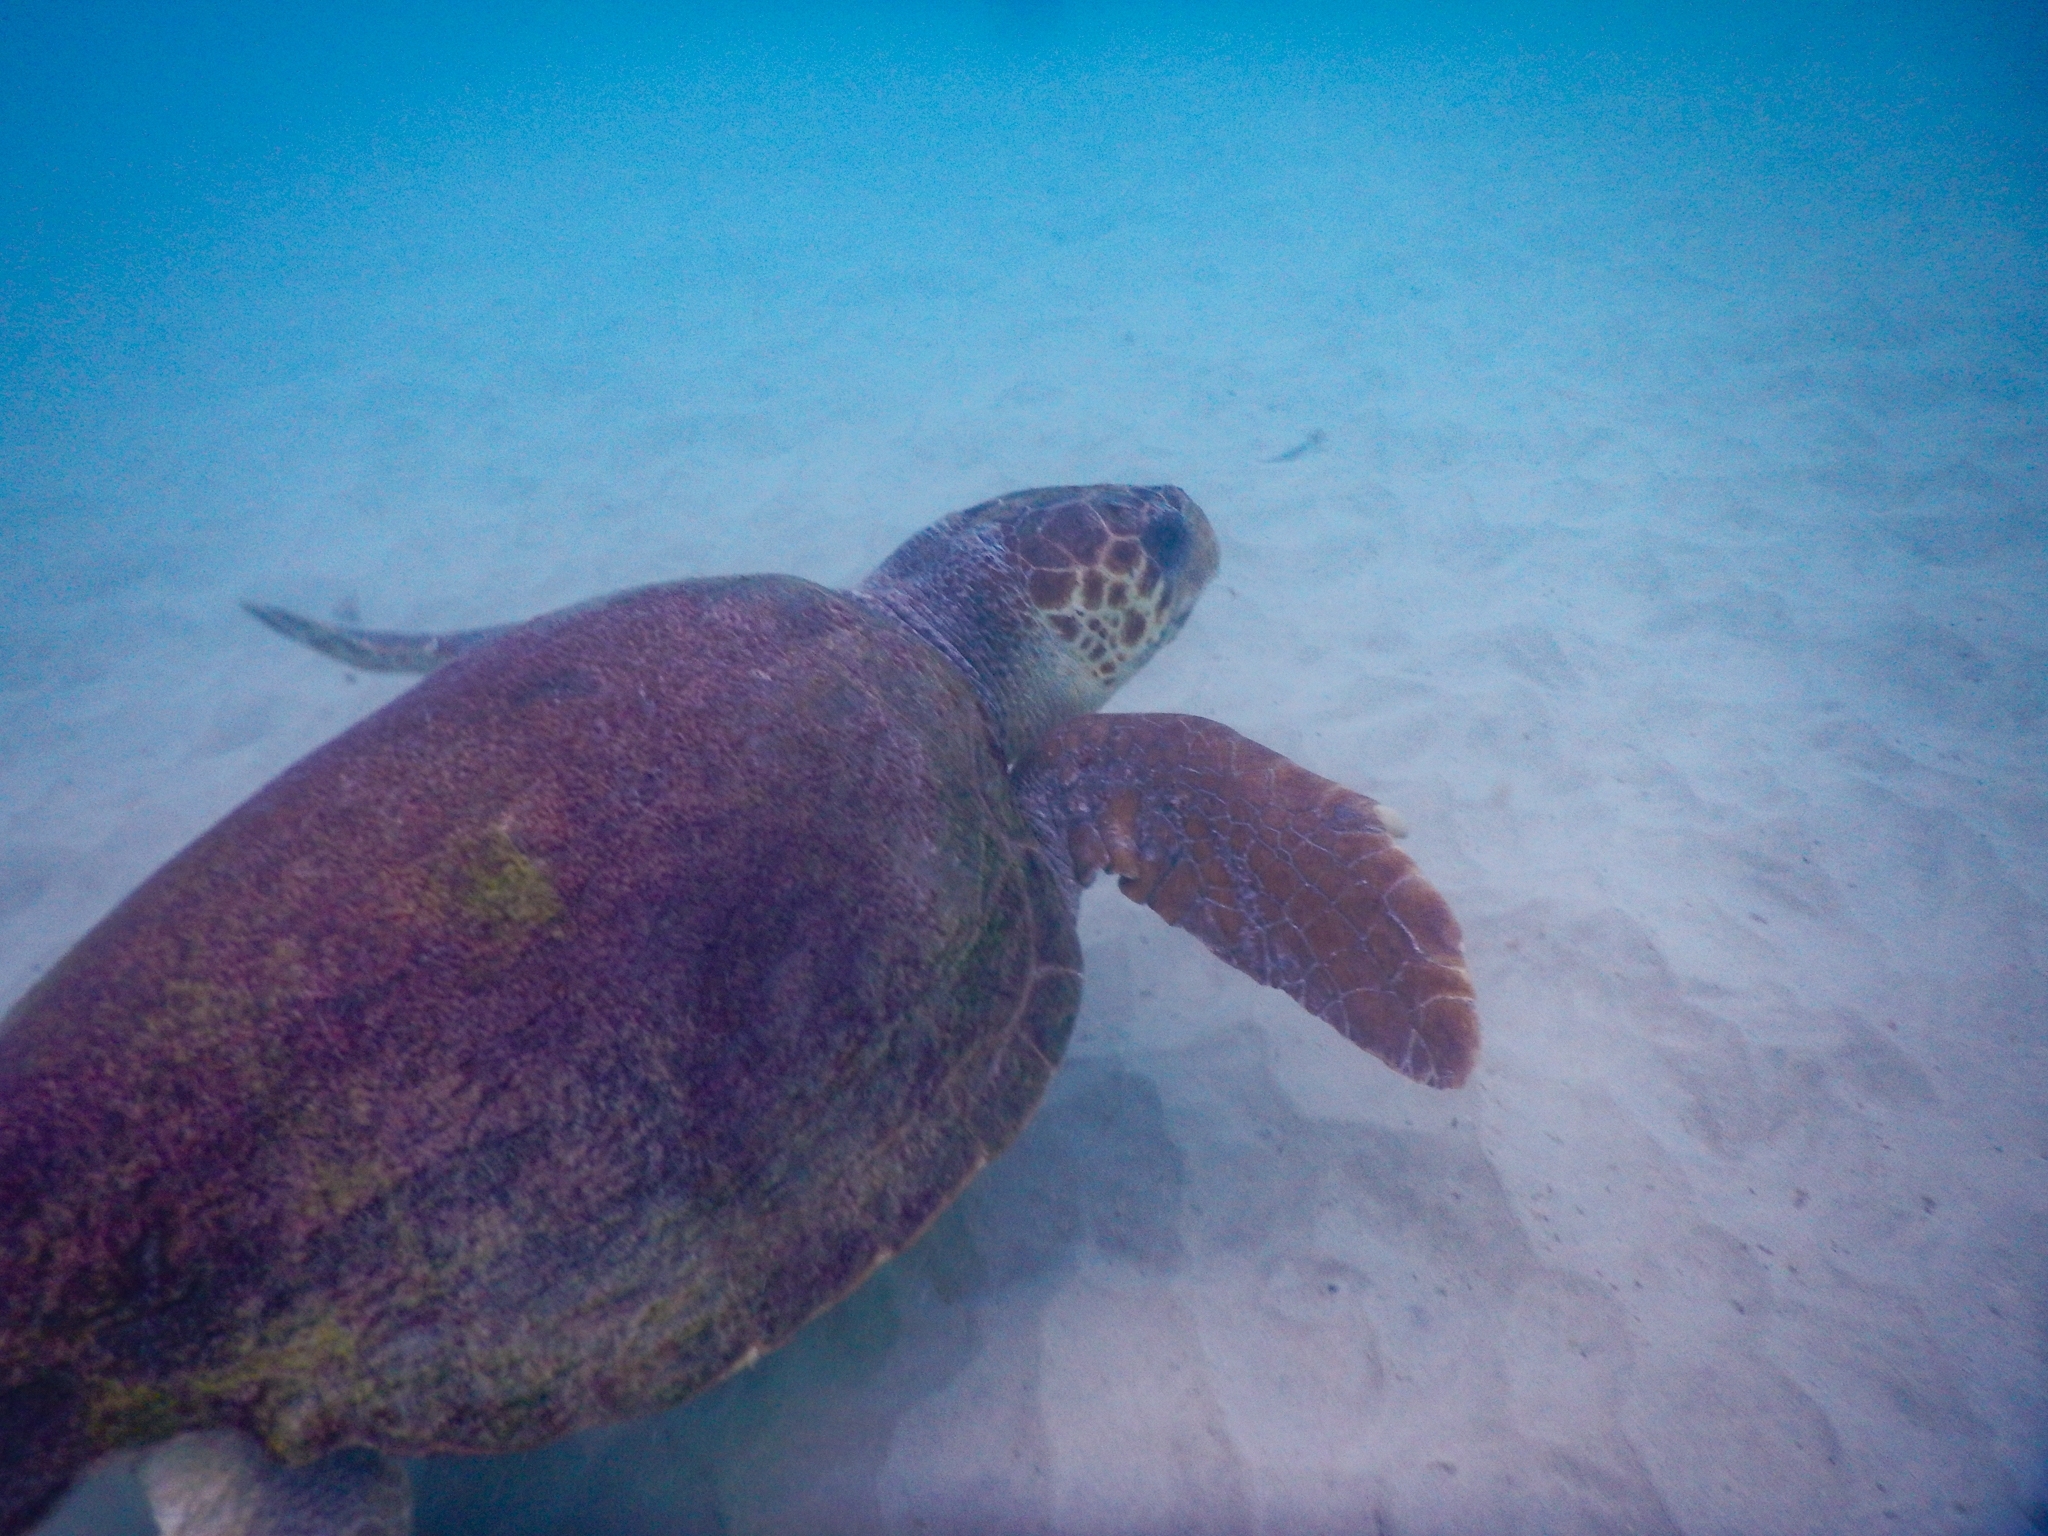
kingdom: Animalia
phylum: Chordata
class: Testudines
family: Cheloniidae
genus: Caretta
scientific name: Caretta caretta
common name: Loggerhead sea turtle
